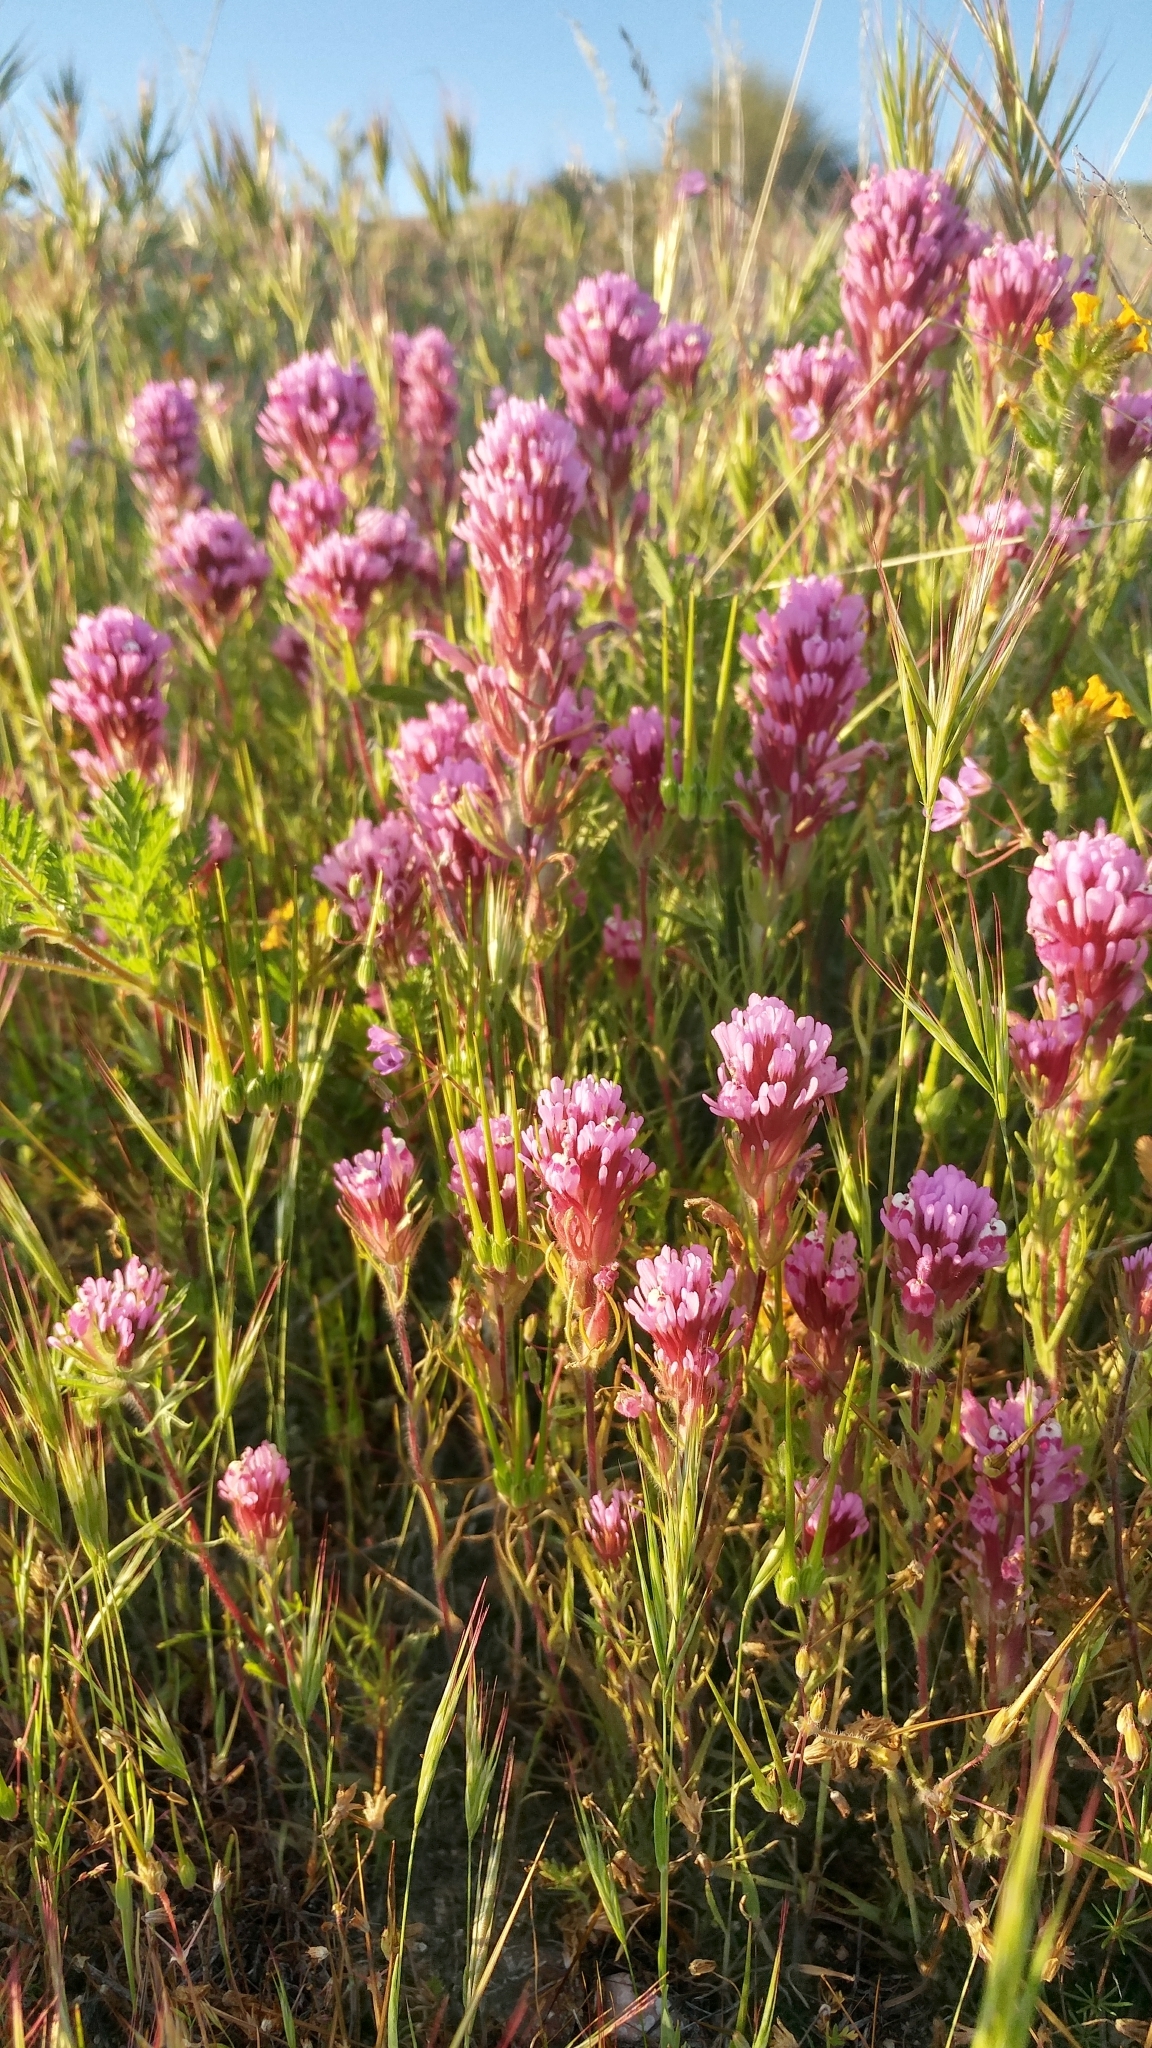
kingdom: Plantae
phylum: Tracheophyta
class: Magnoliopsida
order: Lamiales
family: Orobanchaceae
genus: Castilleja
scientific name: Castilleja exserta
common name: Purple owl-clover
